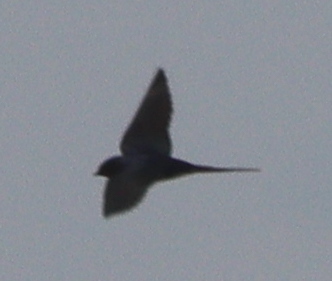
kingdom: Animalia
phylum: Chordata
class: Aves
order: Passeriformes
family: Hirundinidae
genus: Hirundo
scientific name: Hirundo rustica
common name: Barn swallow
